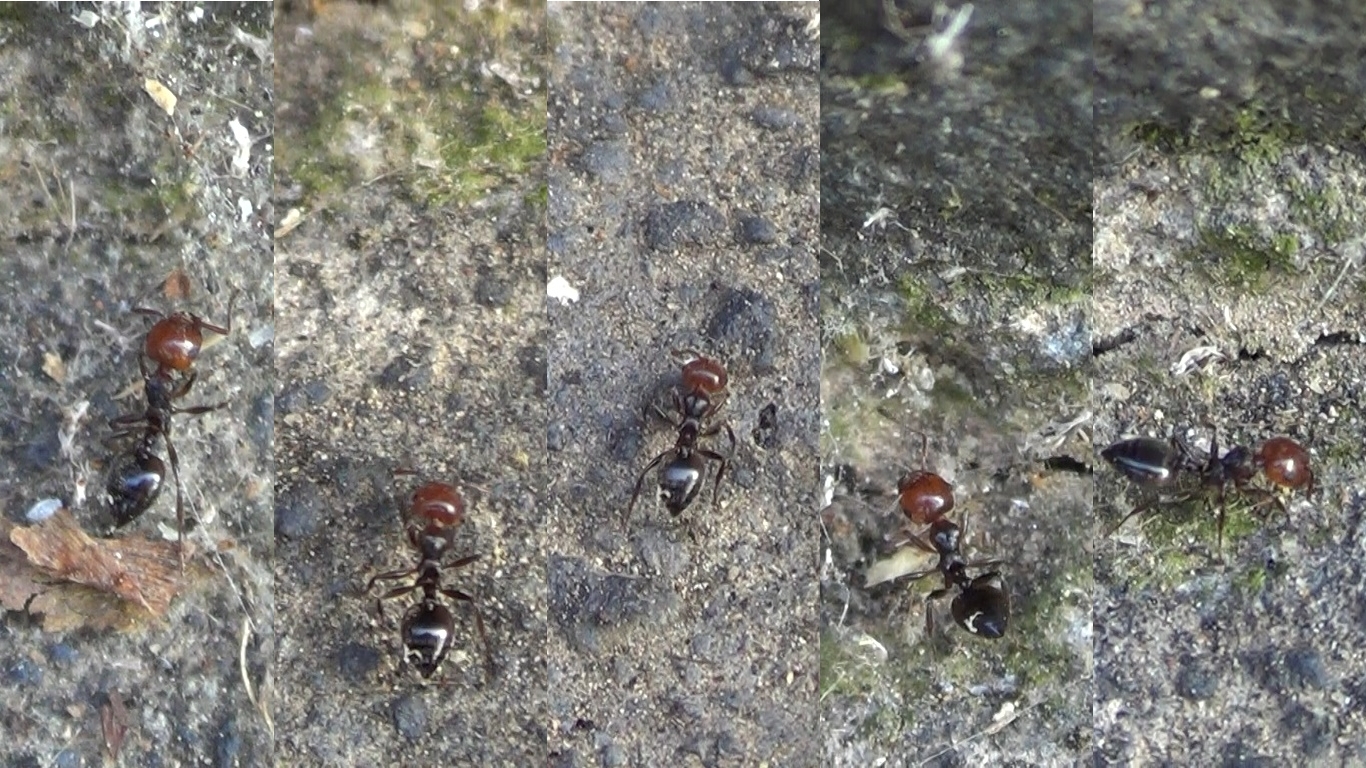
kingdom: Animalia
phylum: Arthropoda
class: Insecta
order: Hymenoptera
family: Formicidae
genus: Crematogaster
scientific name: Crematogaster scutellaris
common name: Fourmi du liège
